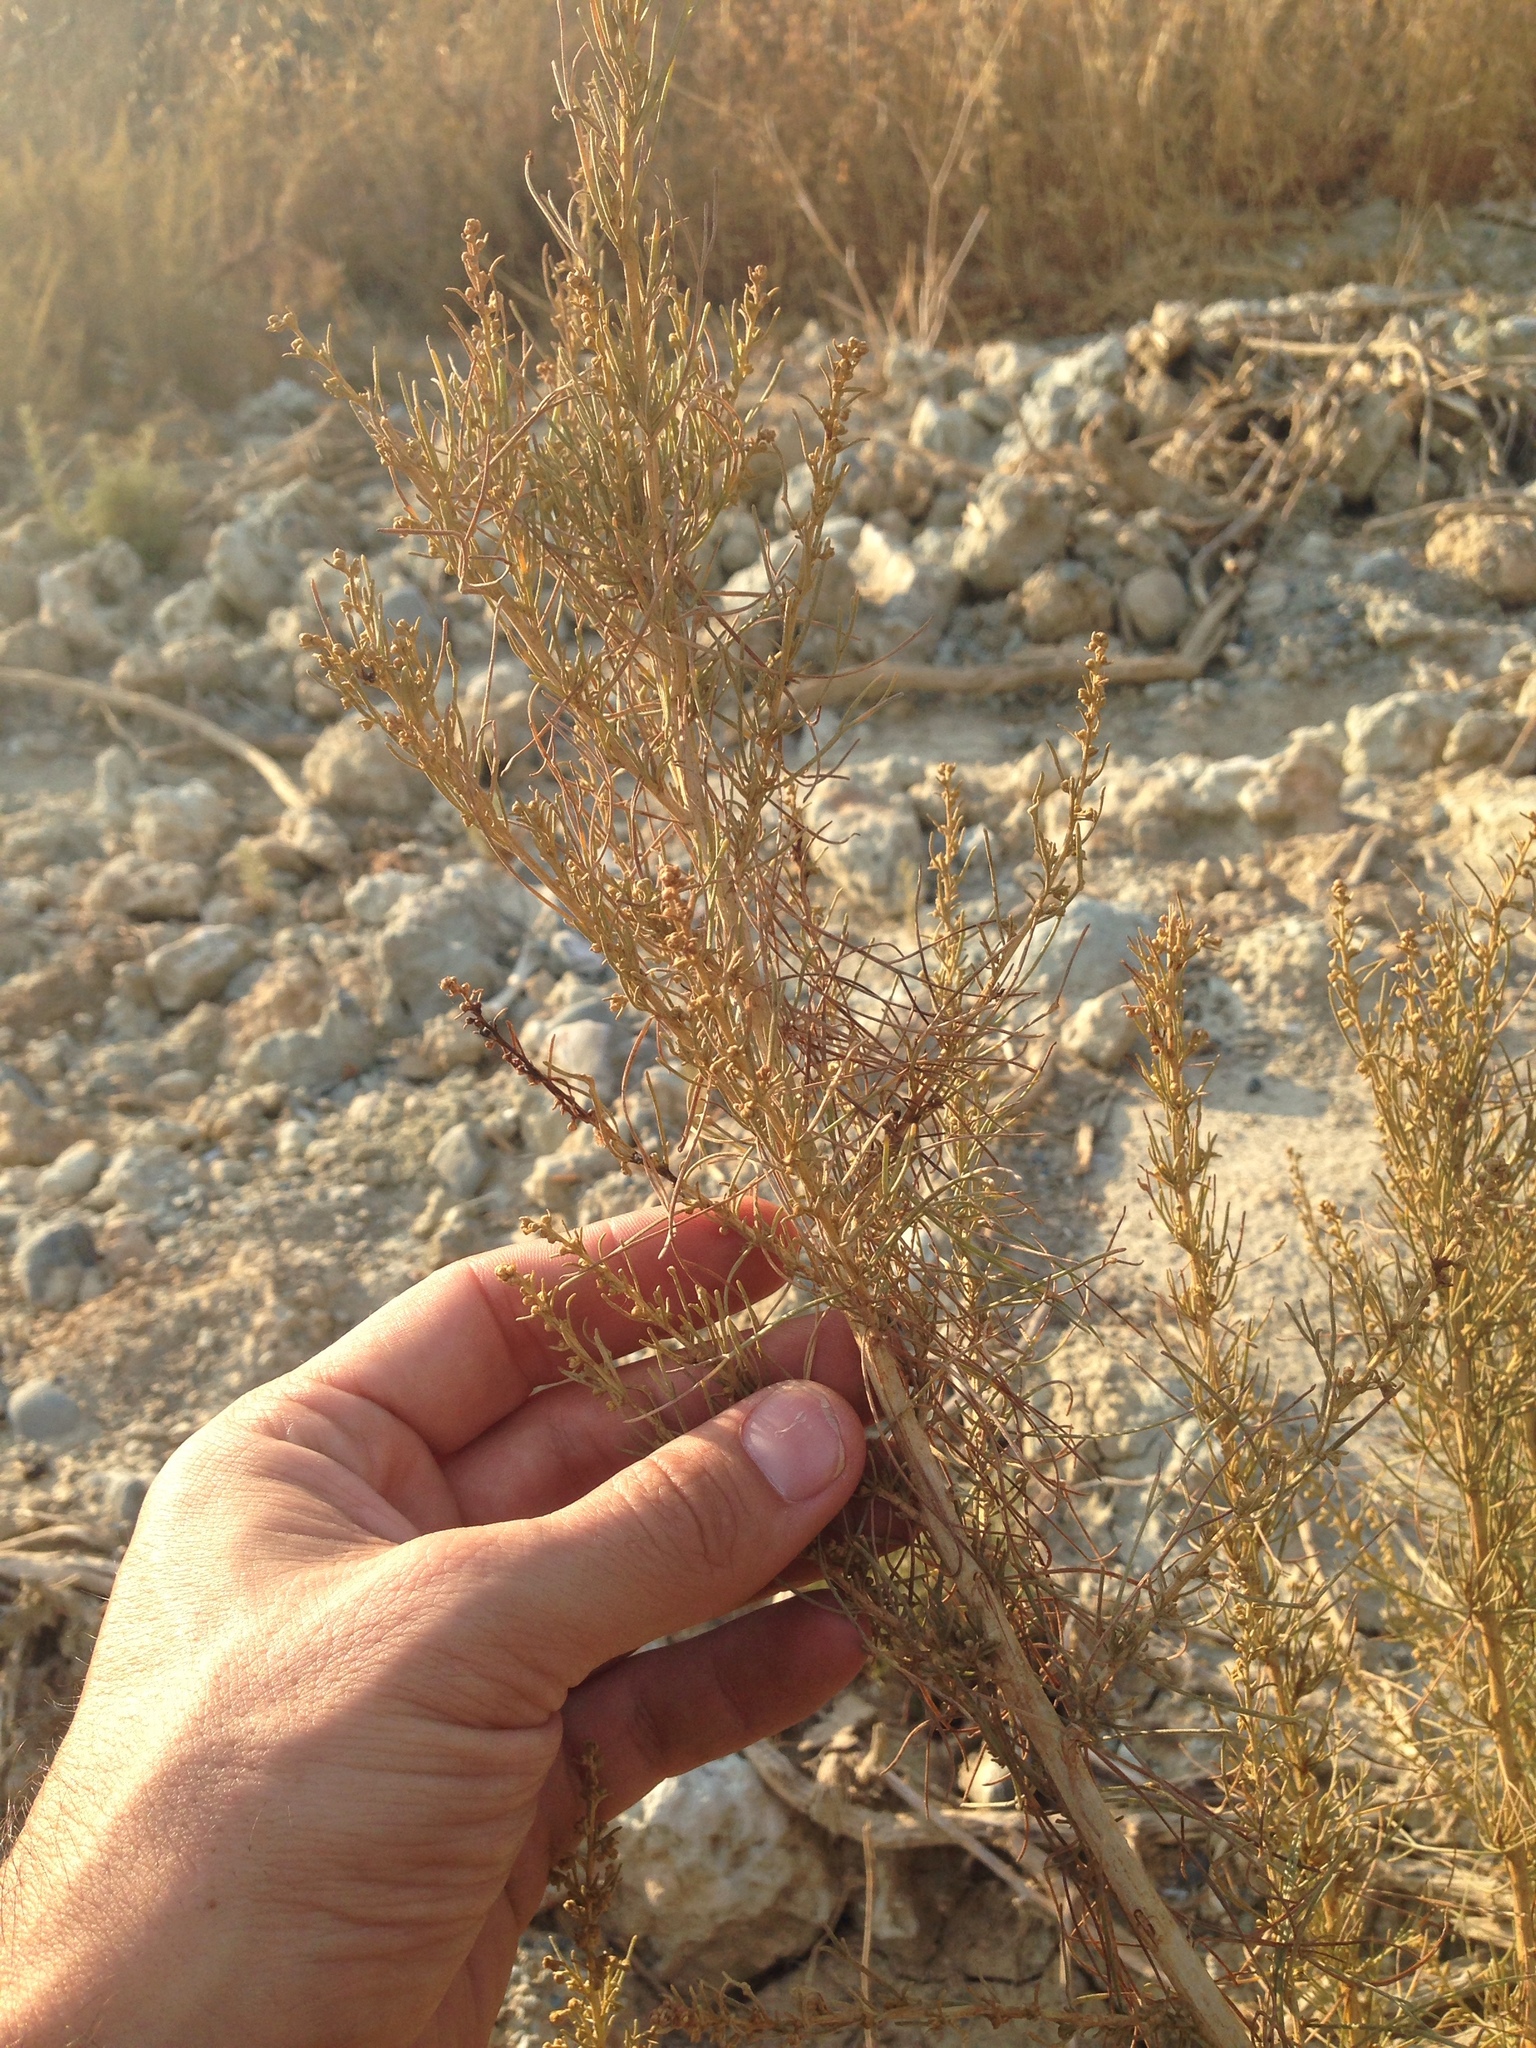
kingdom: Plantae
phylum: Tracheophyta
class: Magnoliopsida
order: Asterales
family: Asteraceae
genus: Artemisia
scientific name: Artemisia californica
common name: California sagebrush
